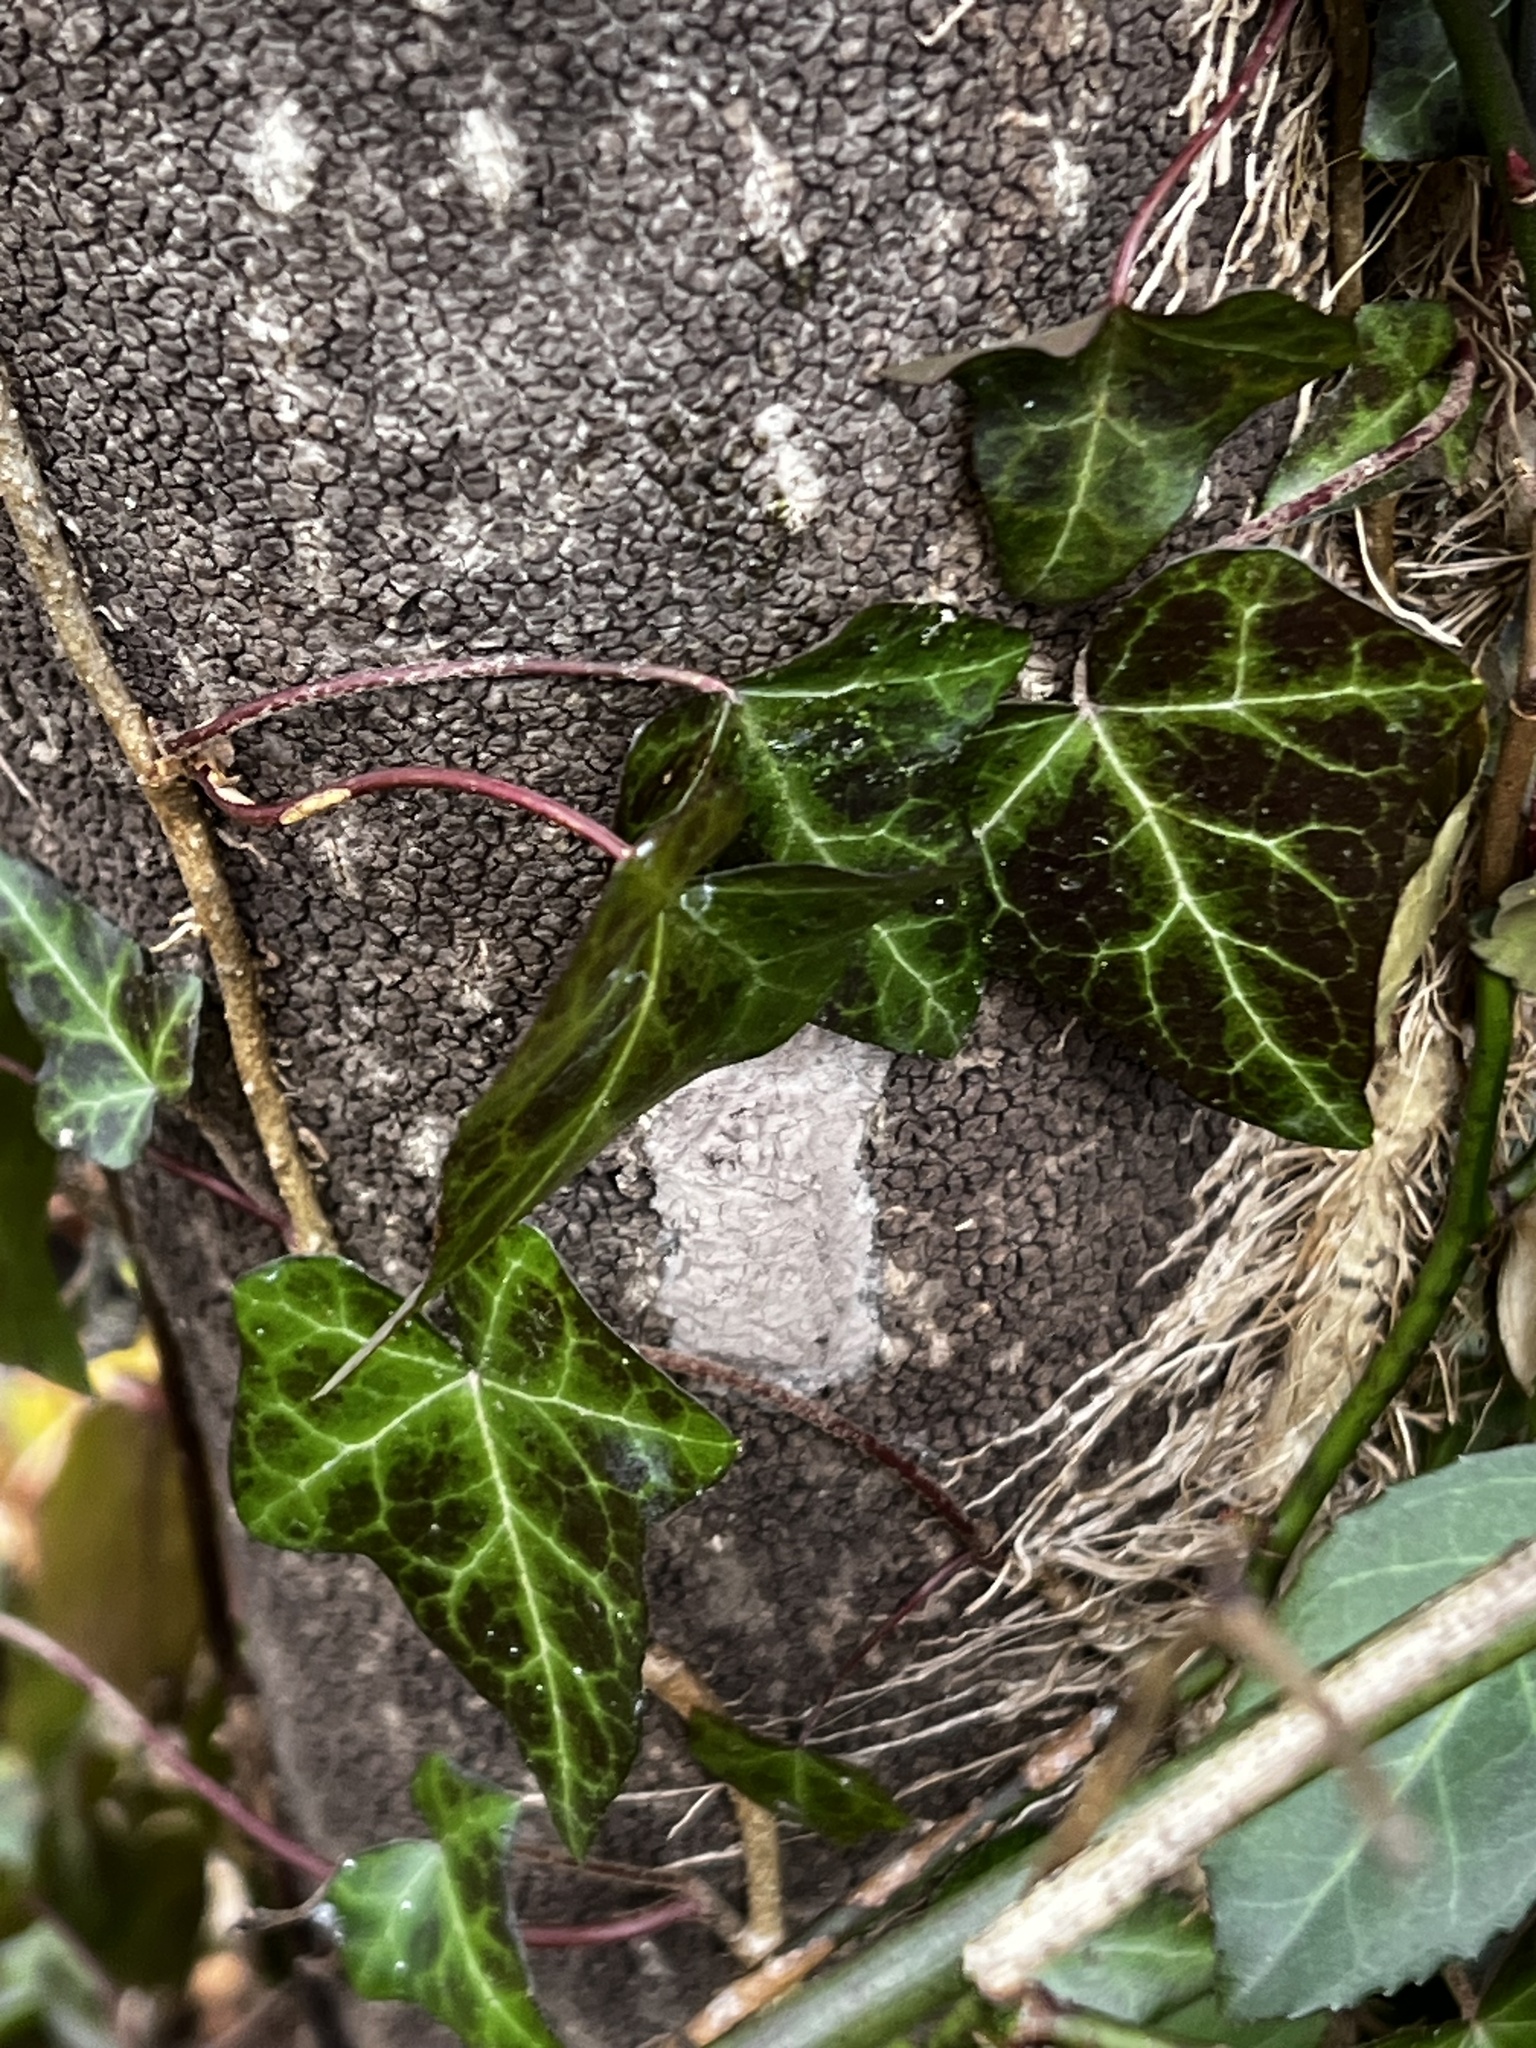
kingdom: Animalia
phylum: Arthropoda
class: Insecta
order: Hemiptera
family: Fulgoridae
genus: Lycorma
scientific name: Lycorma delicatula
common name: Spotted lanternfly
